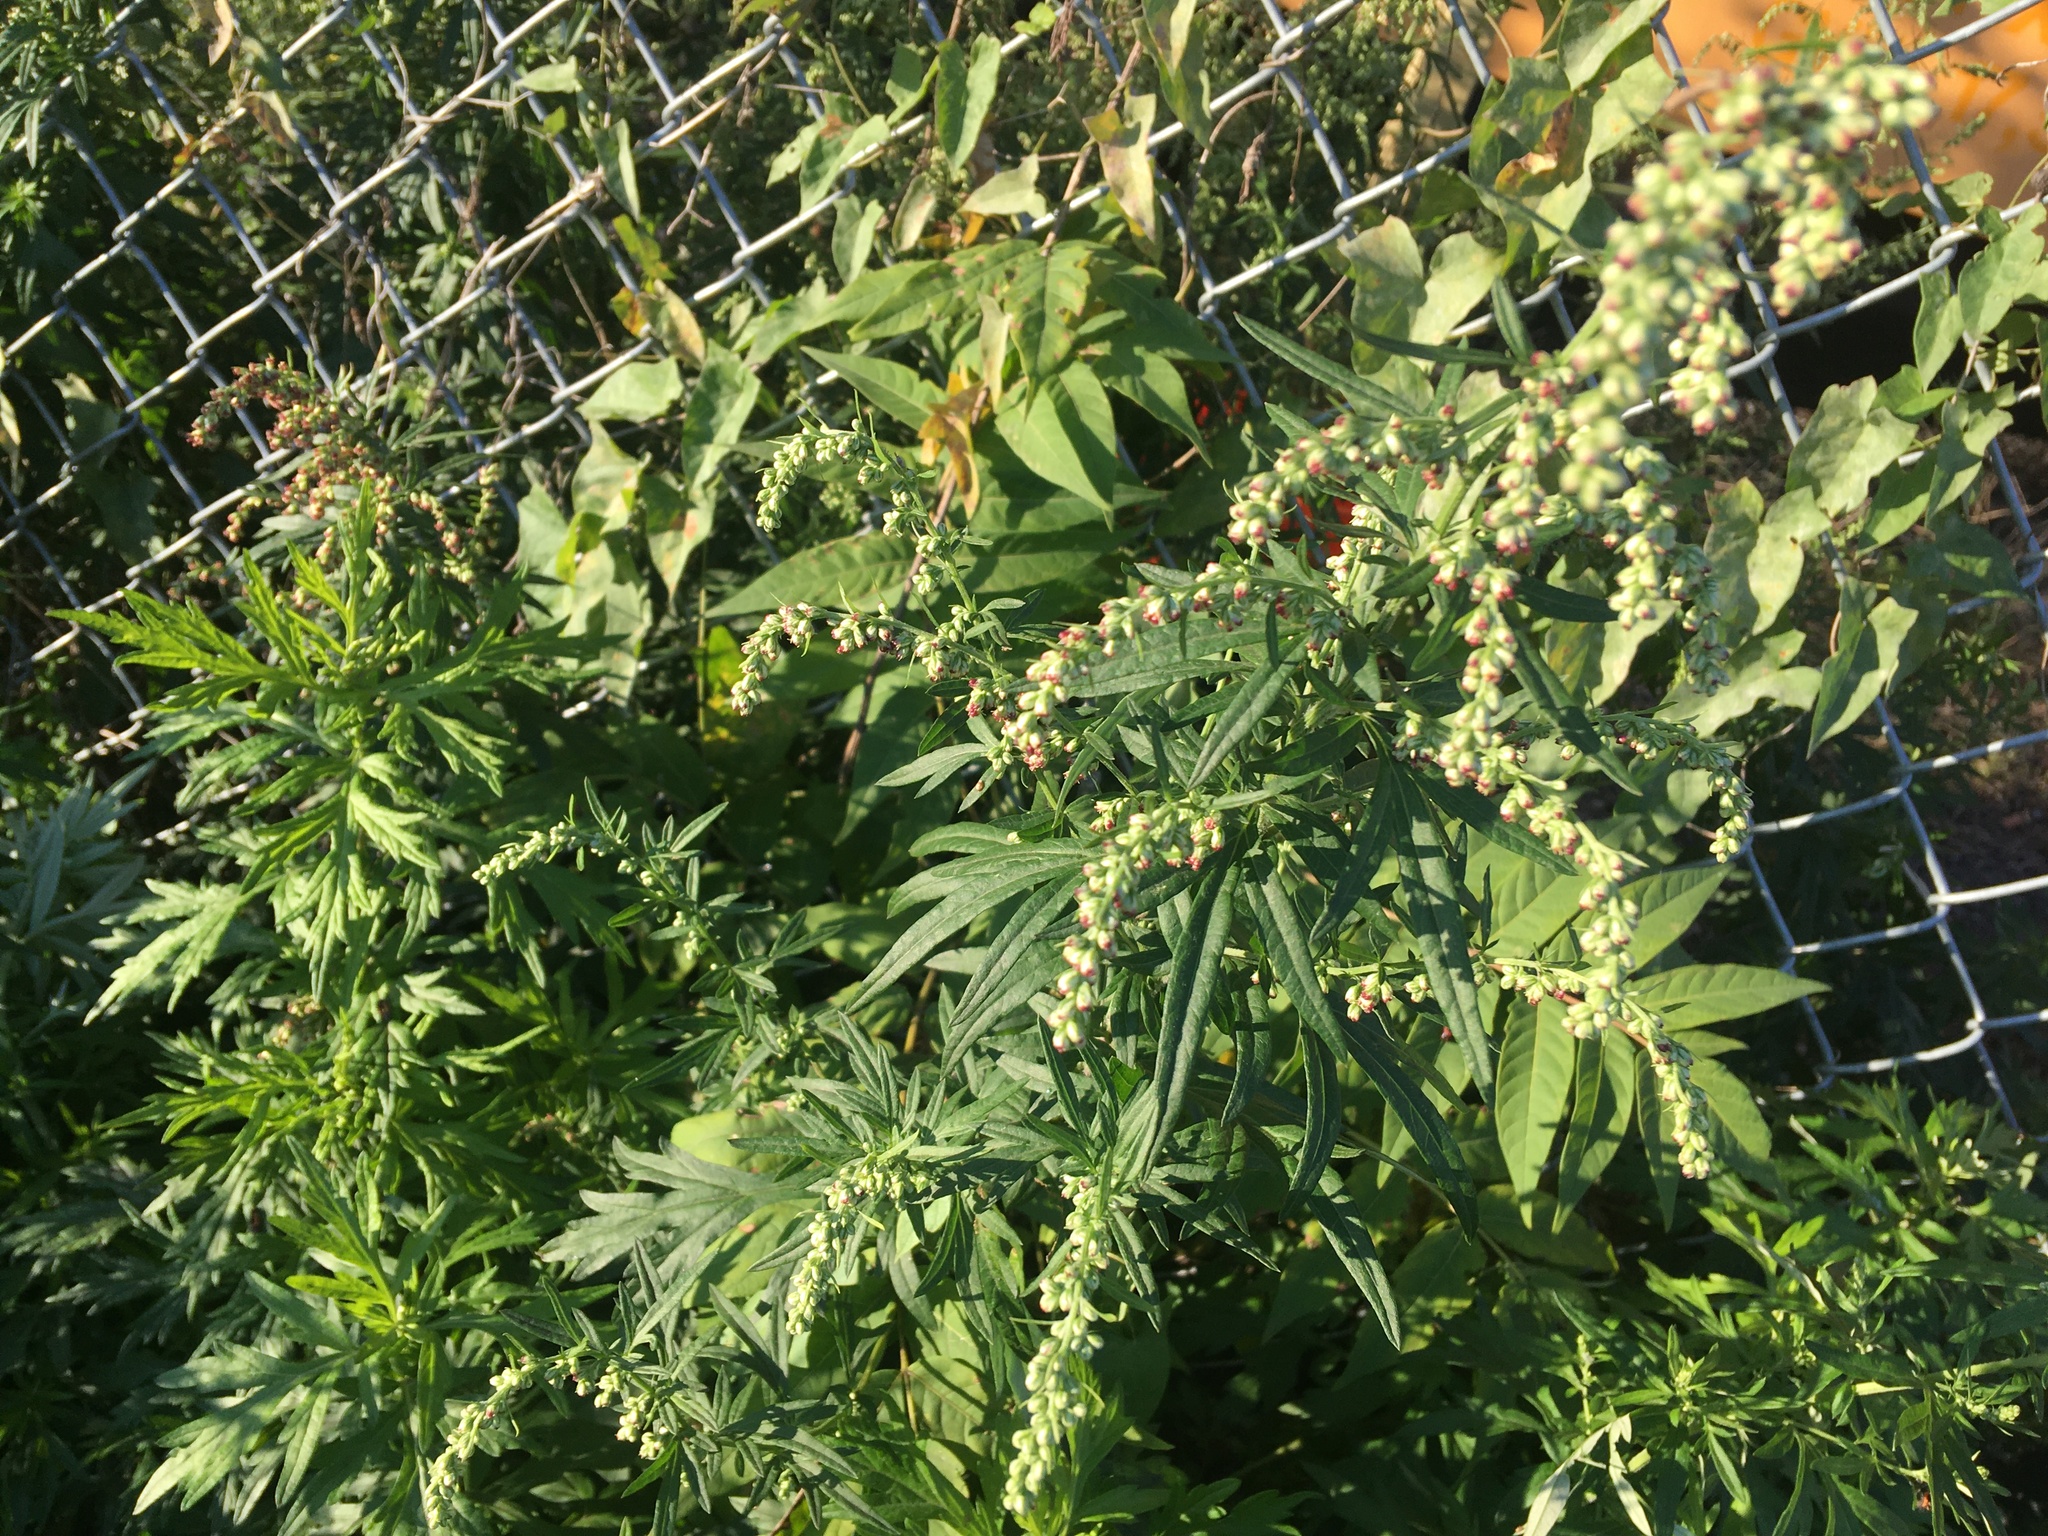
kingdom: Plantae
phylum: Tracheophyta
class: Magnoliopsida
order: Asterales
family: Asteraceae
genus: Artemisia
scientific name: Artemisia vulgaris
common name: Mugwort
